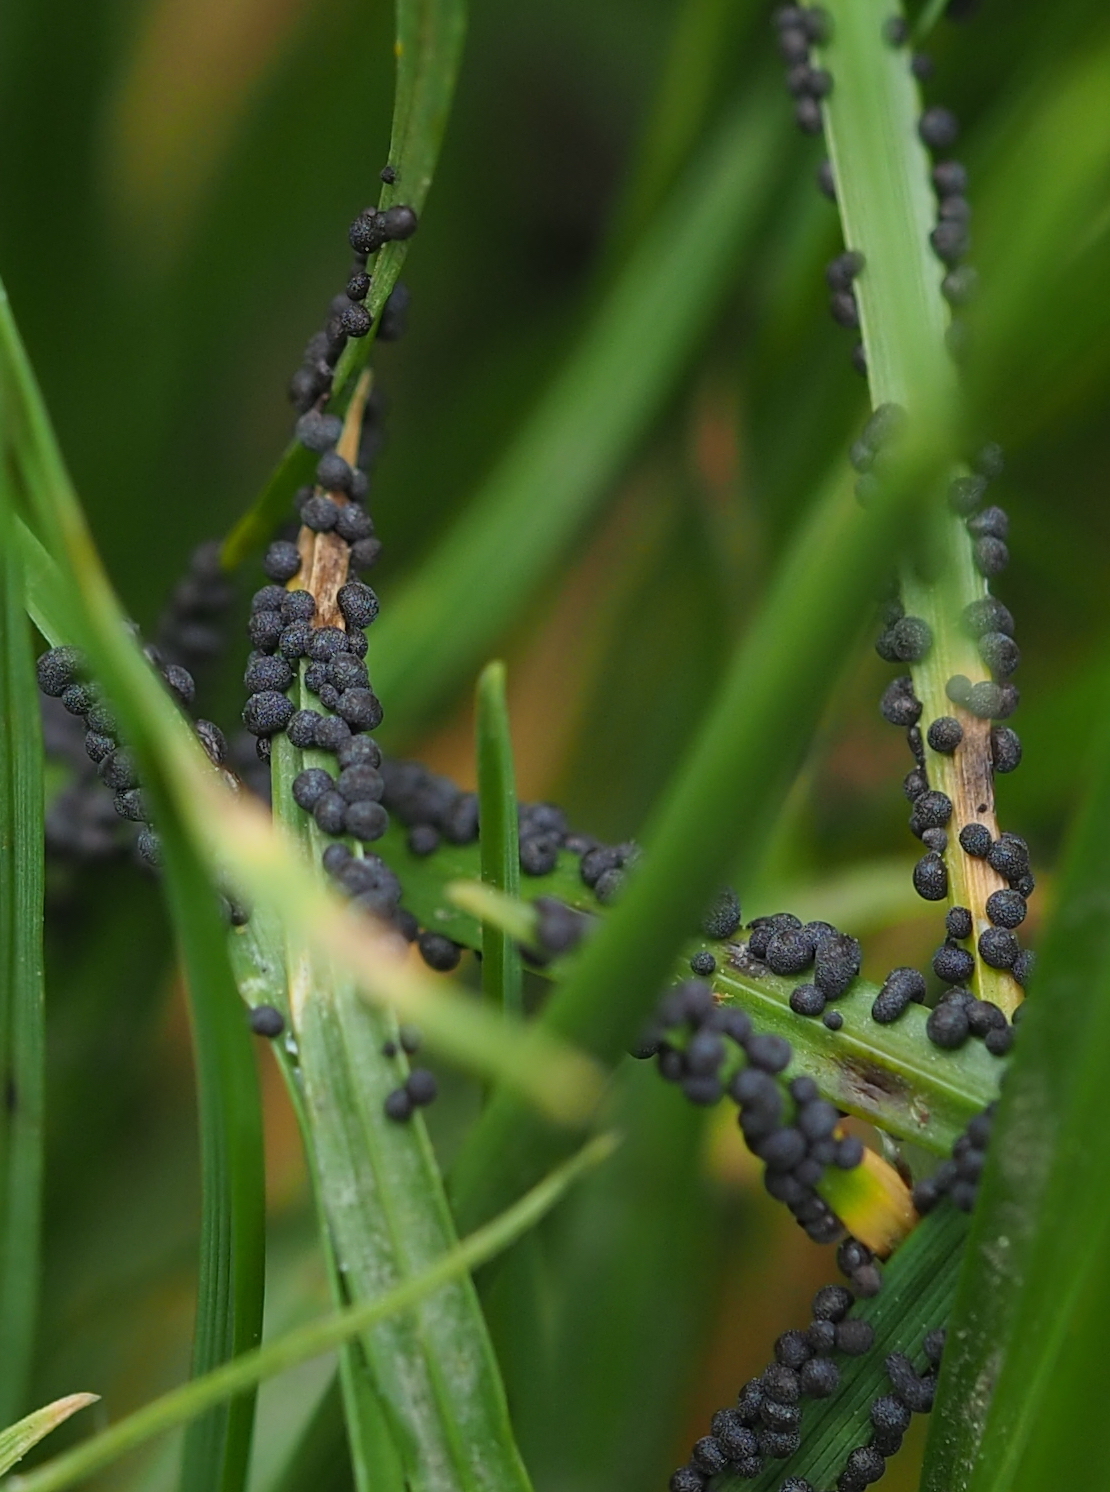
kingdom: Protozoa
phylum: Mycetozoa
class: Myxomycetes
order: Physarales
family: Physaraceae
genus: Badhamia
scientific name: Badhamia foliicola
